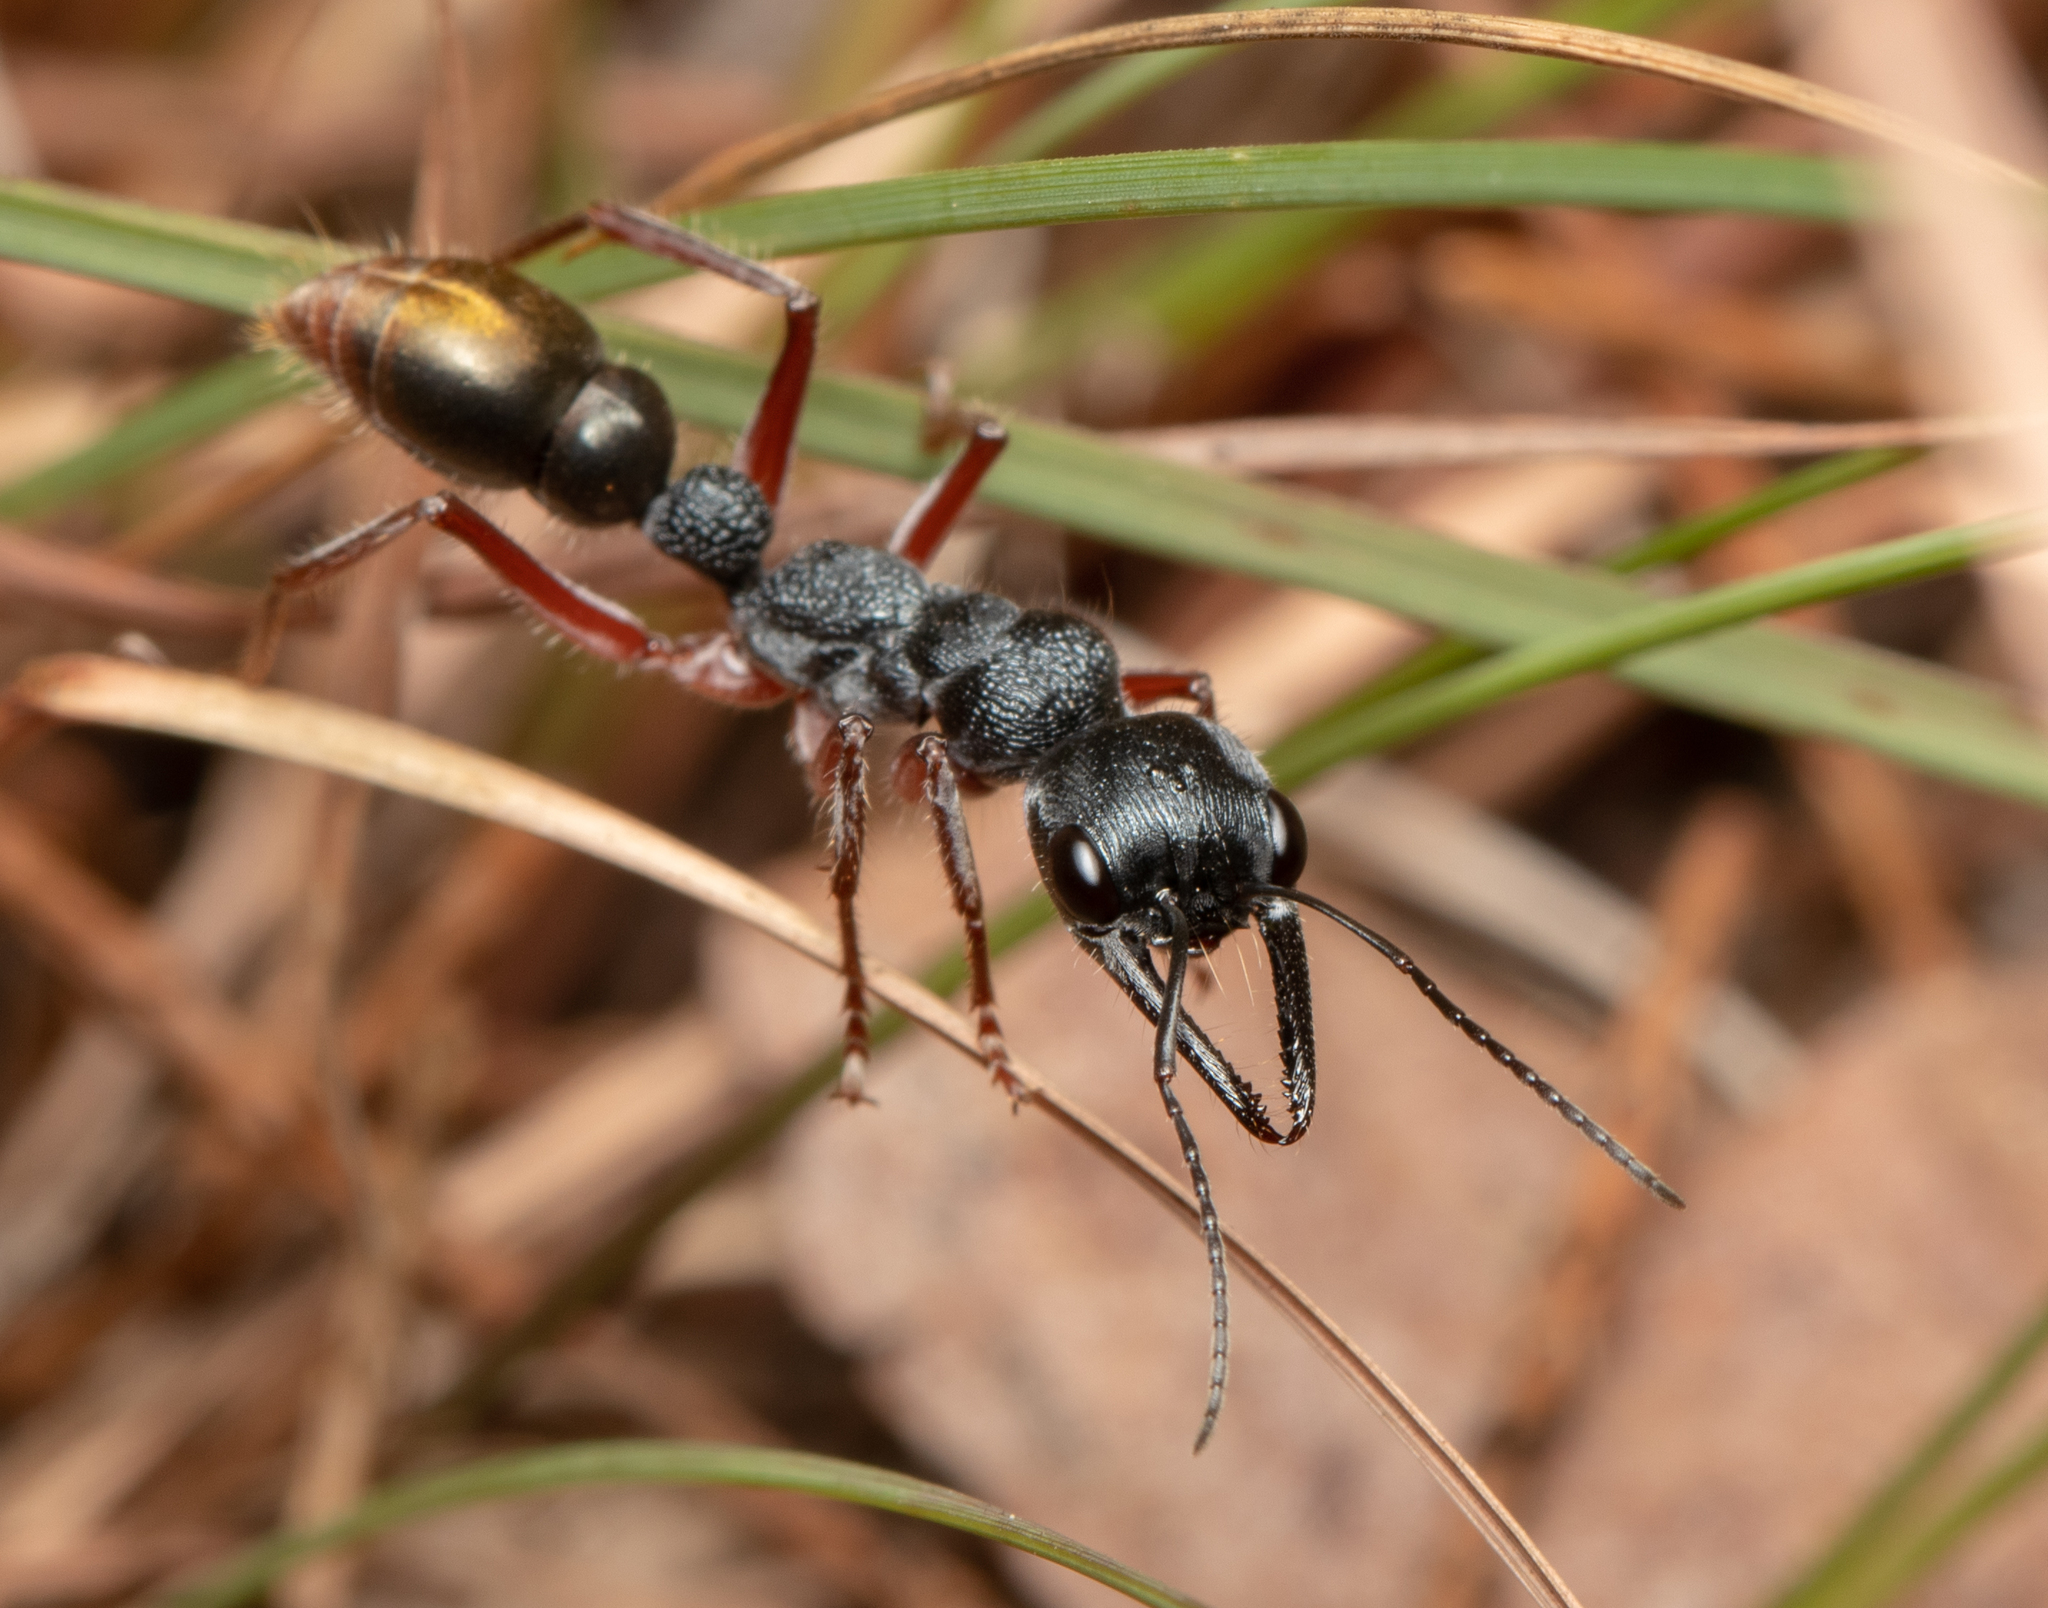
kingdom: Animalia
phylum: Arthropoda
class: Insecta
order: Hymenoptera
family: Formicidae
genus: Myrmecia
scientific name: Myrmecia fulviculis
